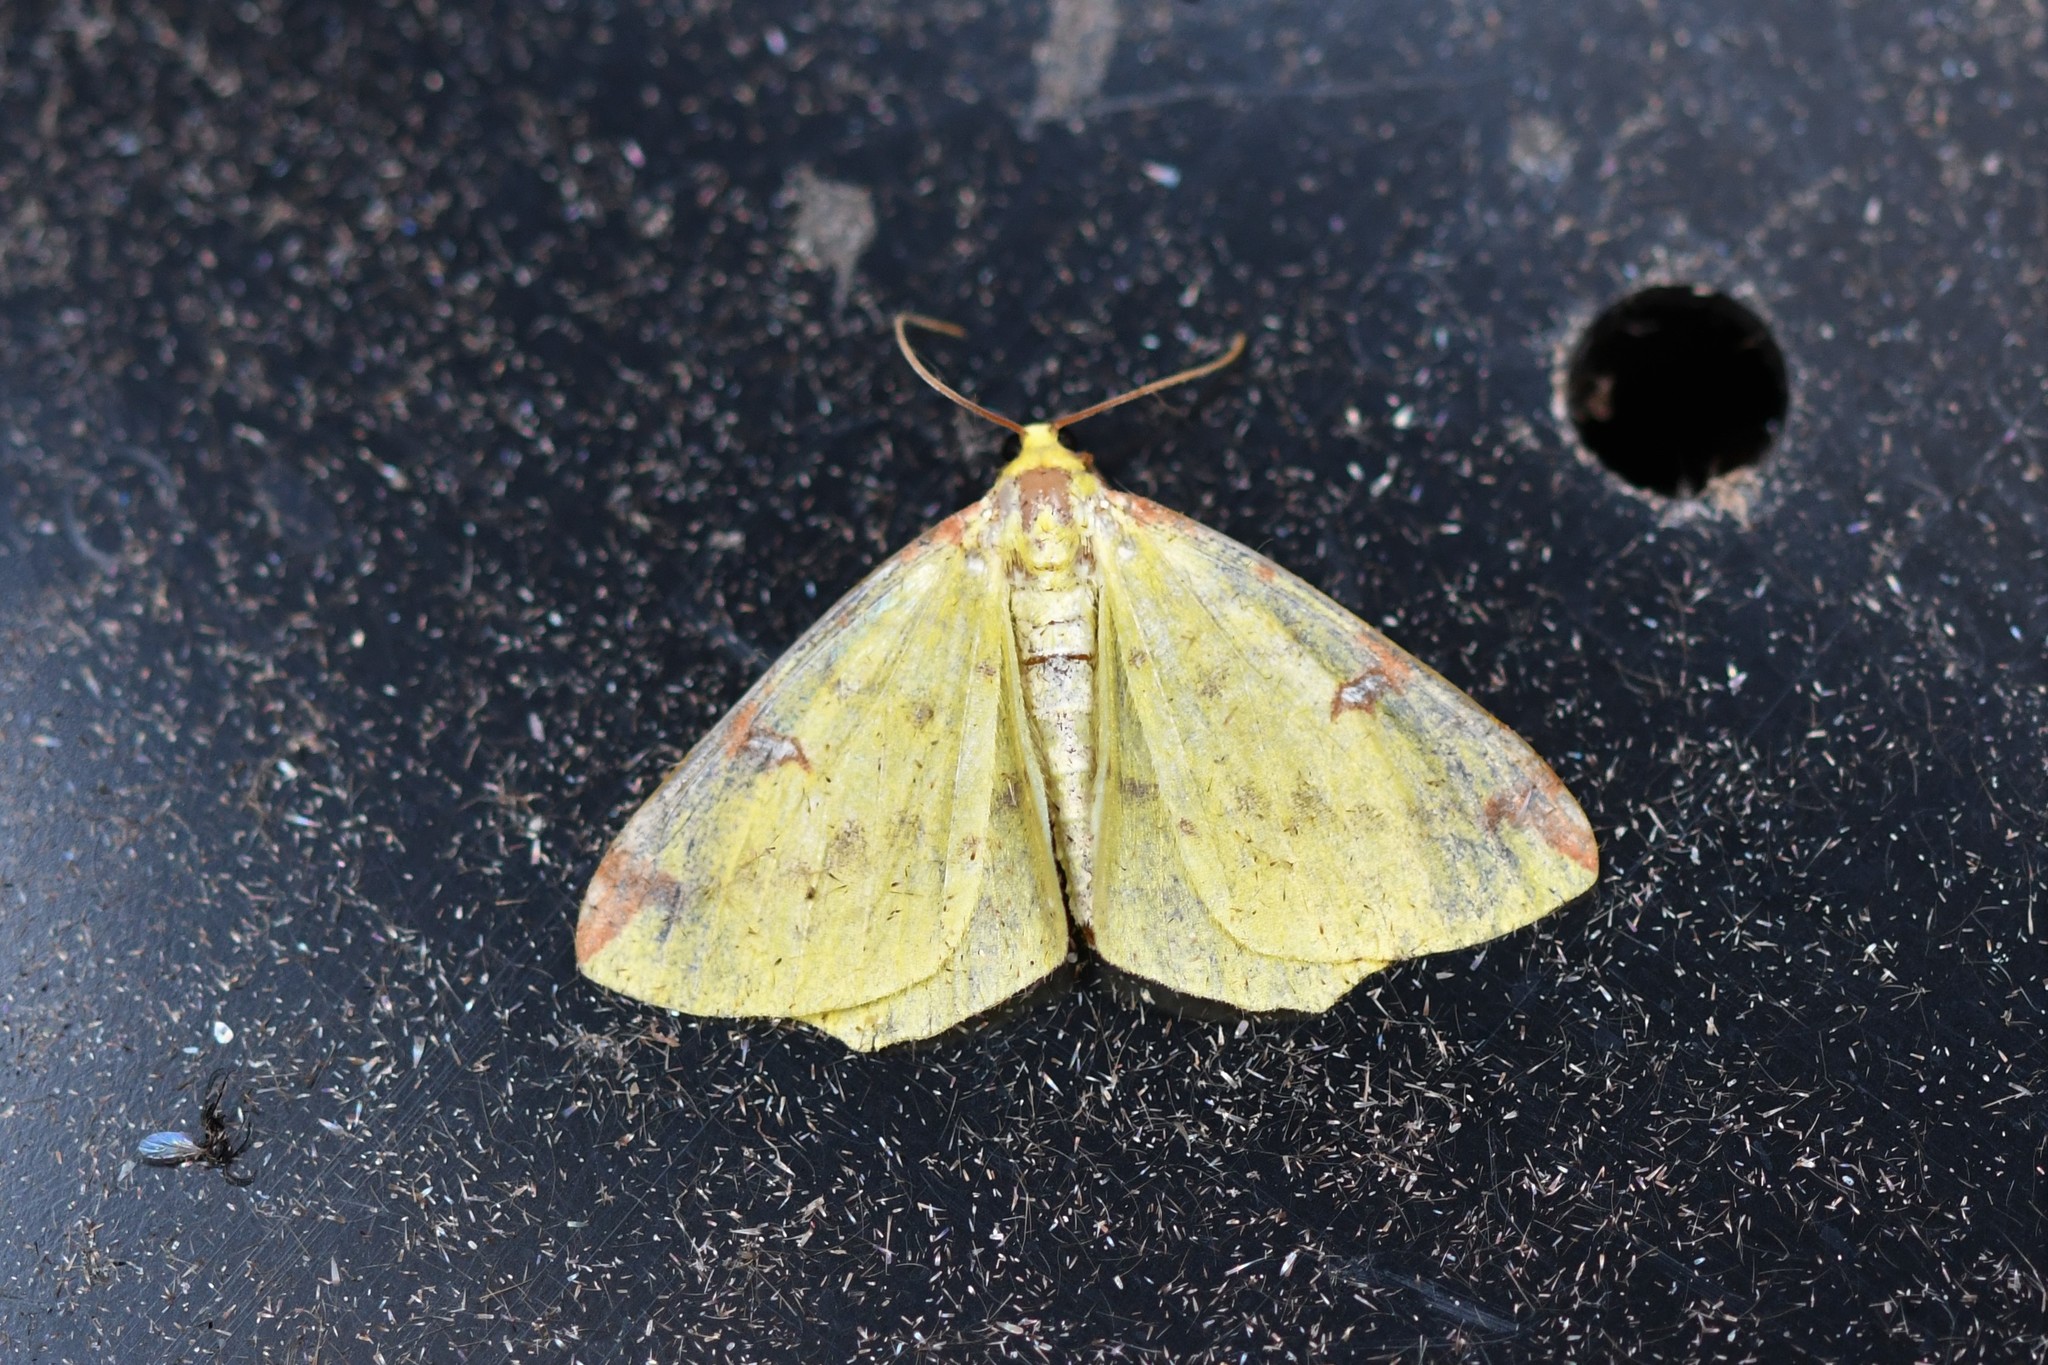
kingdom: Animalia
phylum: Arthropoda
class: Insecta
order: Lepidoptera
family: Geometridae
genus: Opisthograptis
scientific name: Opisthograptis luteolata
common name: Brimstone moth
